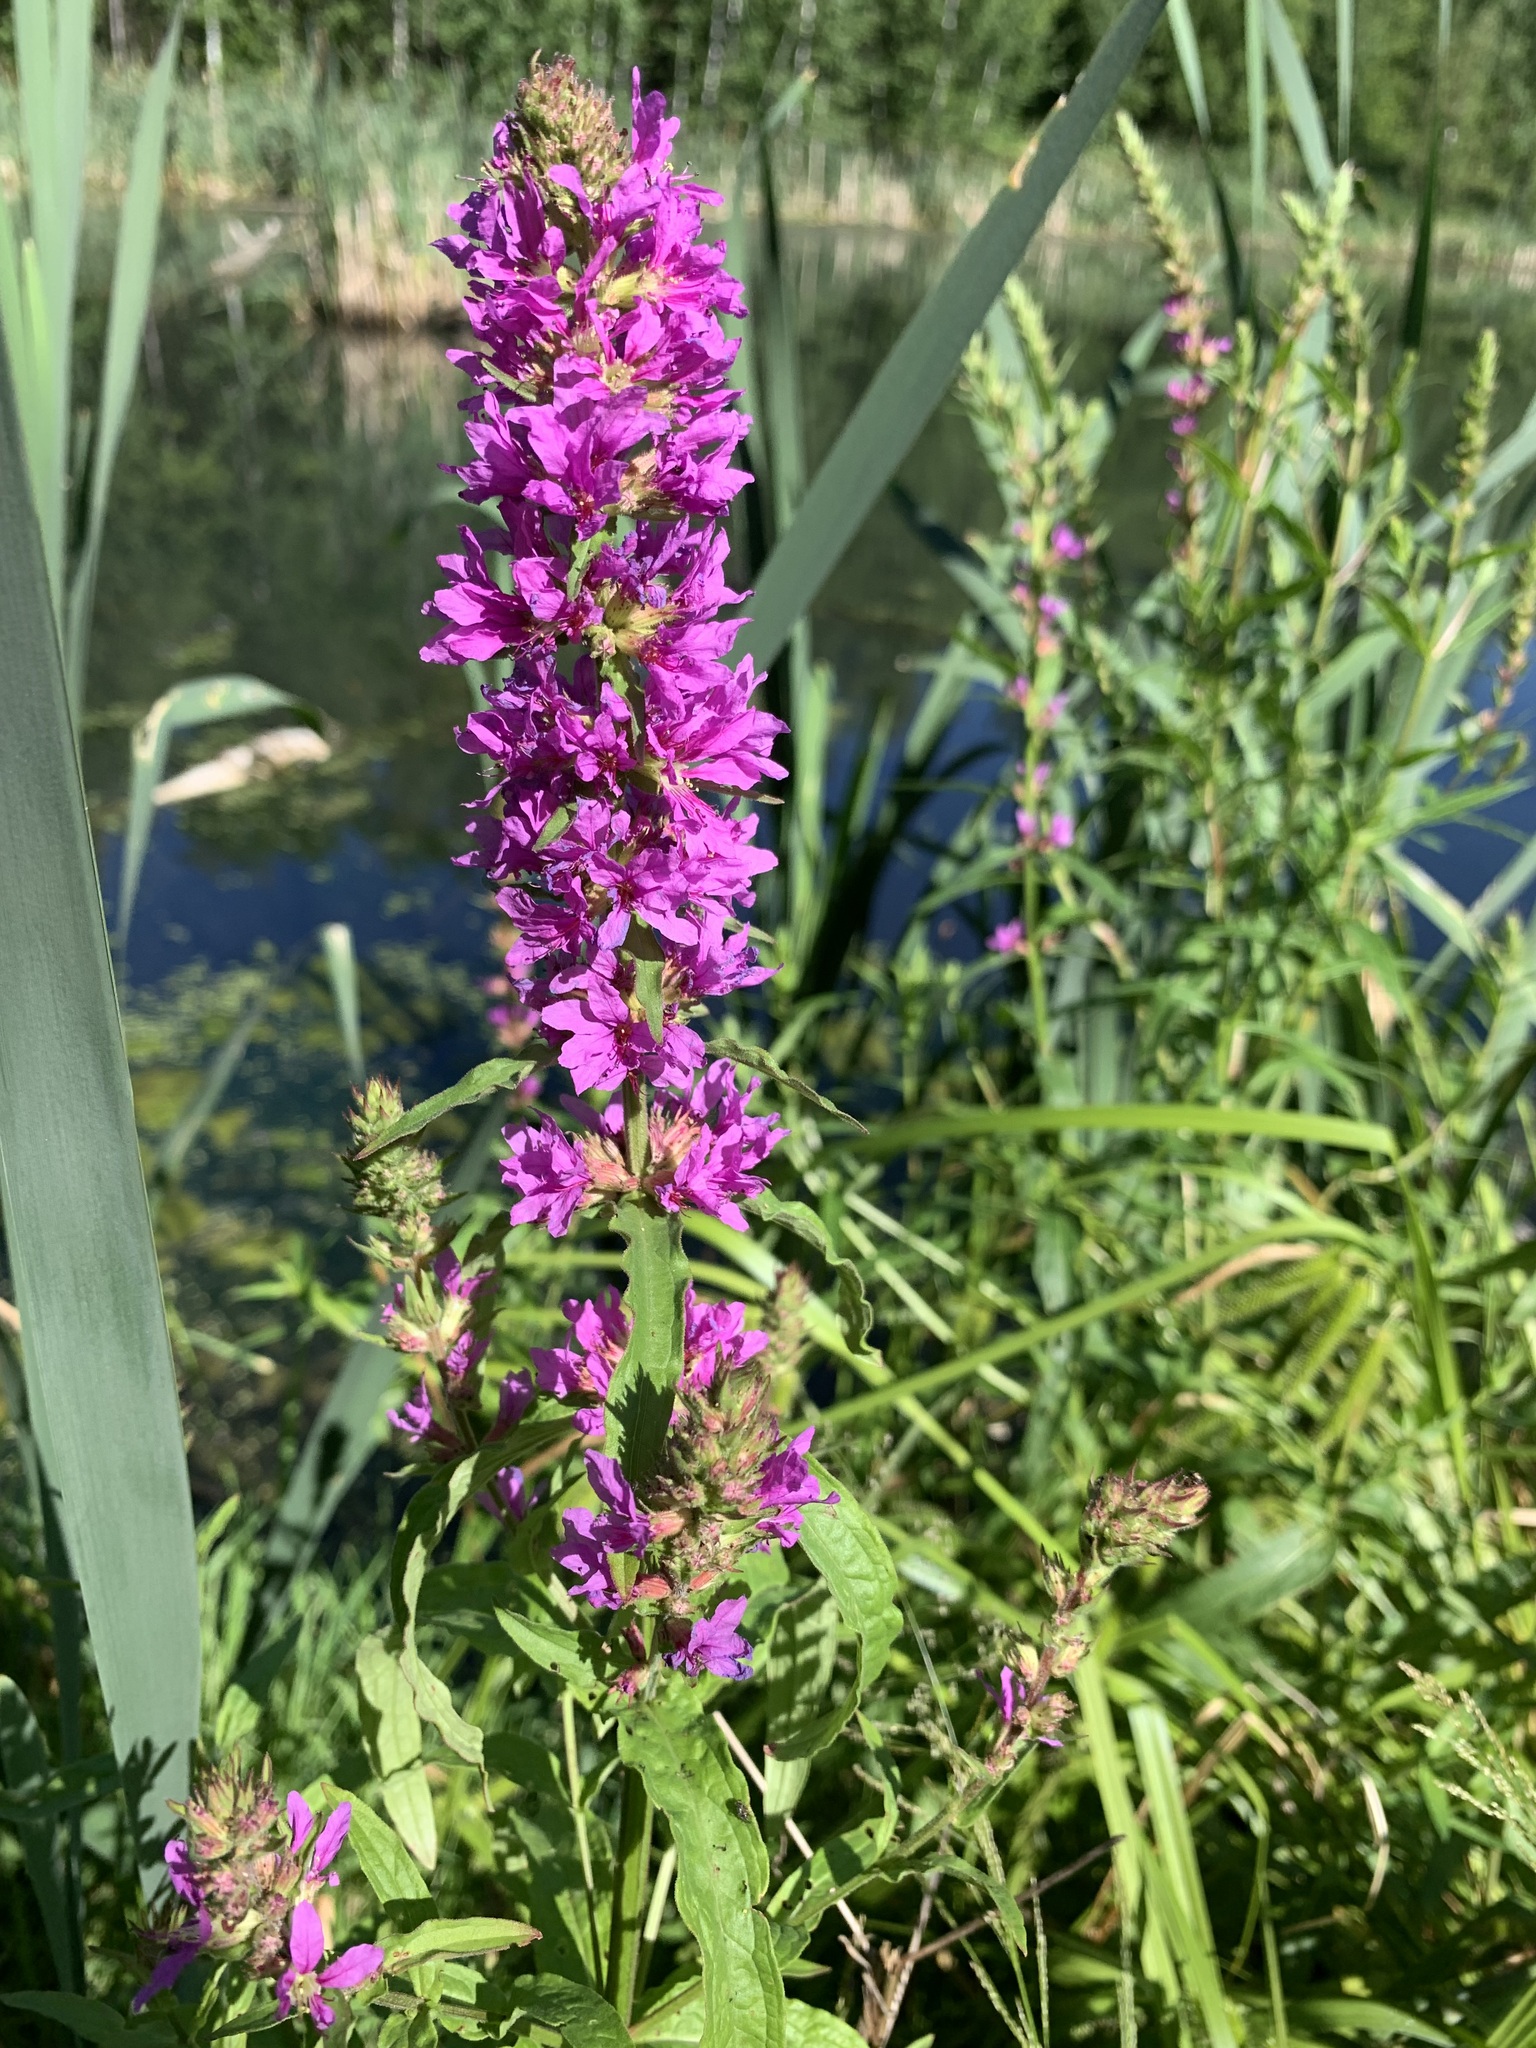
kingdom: Plantae
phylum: Tracheophyta
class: Magnoliopsida
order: Myrtales
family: Lythraceae
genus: Lythrum
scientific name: Lythrum salicaria
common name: Purple loosestrife
